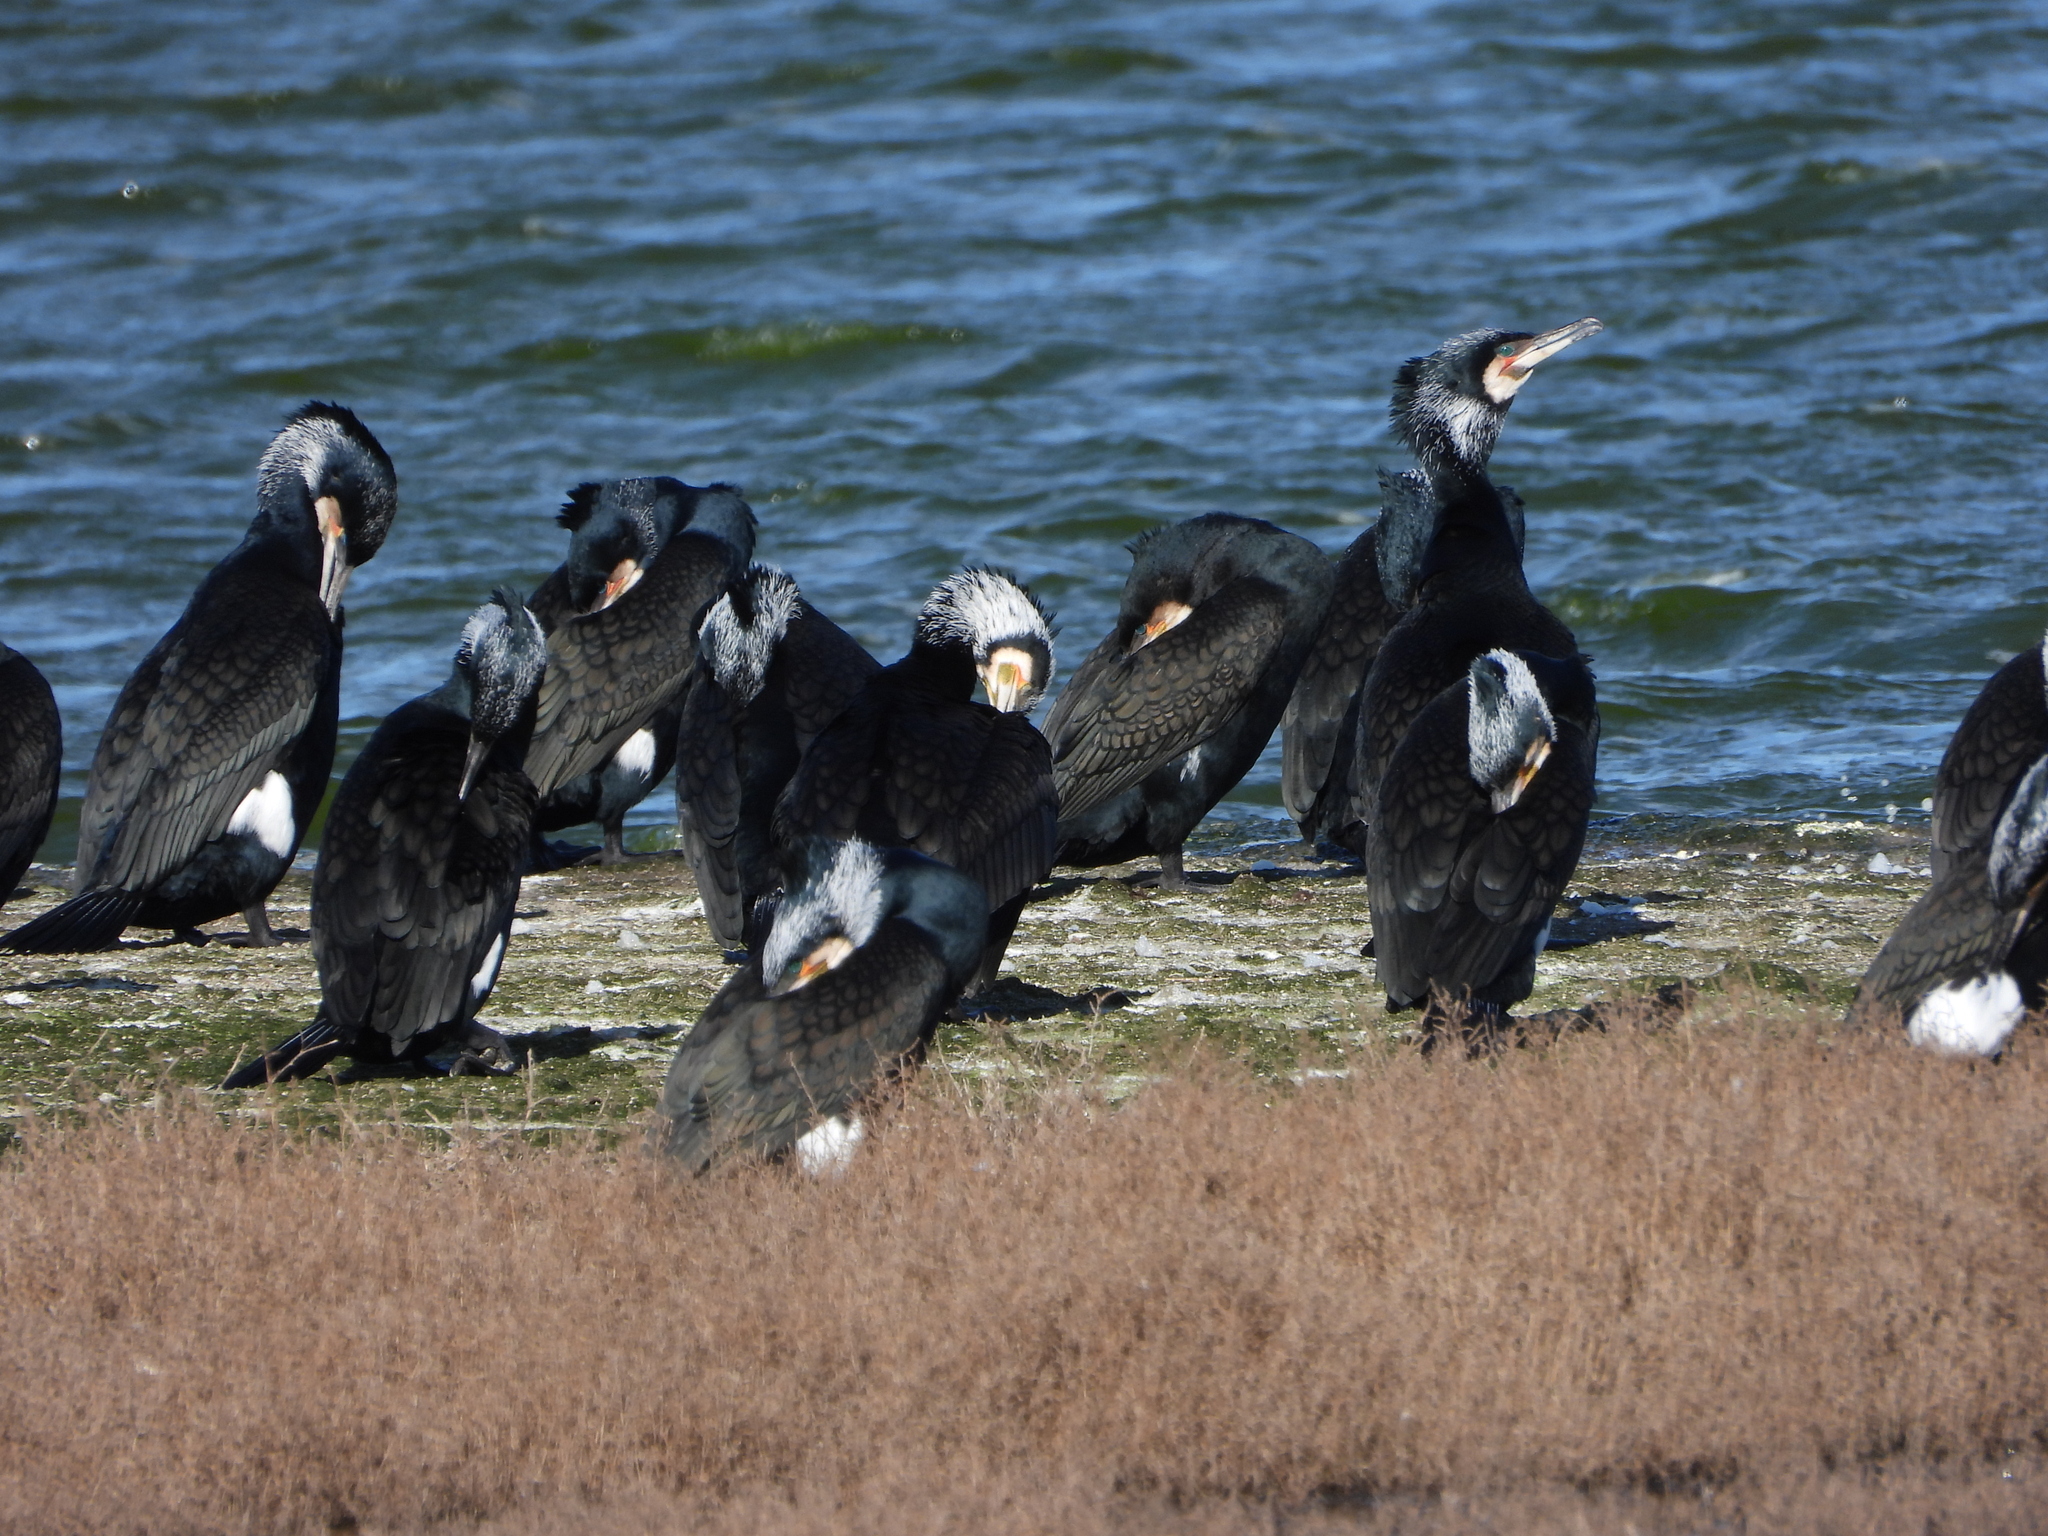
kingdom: Animalia
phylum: Chordata
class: Aves
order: Suliformes
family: Phalacrocoracidae
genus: Phalacrocorax
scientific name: Phalacrocorax carbo
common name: Great cormorant
